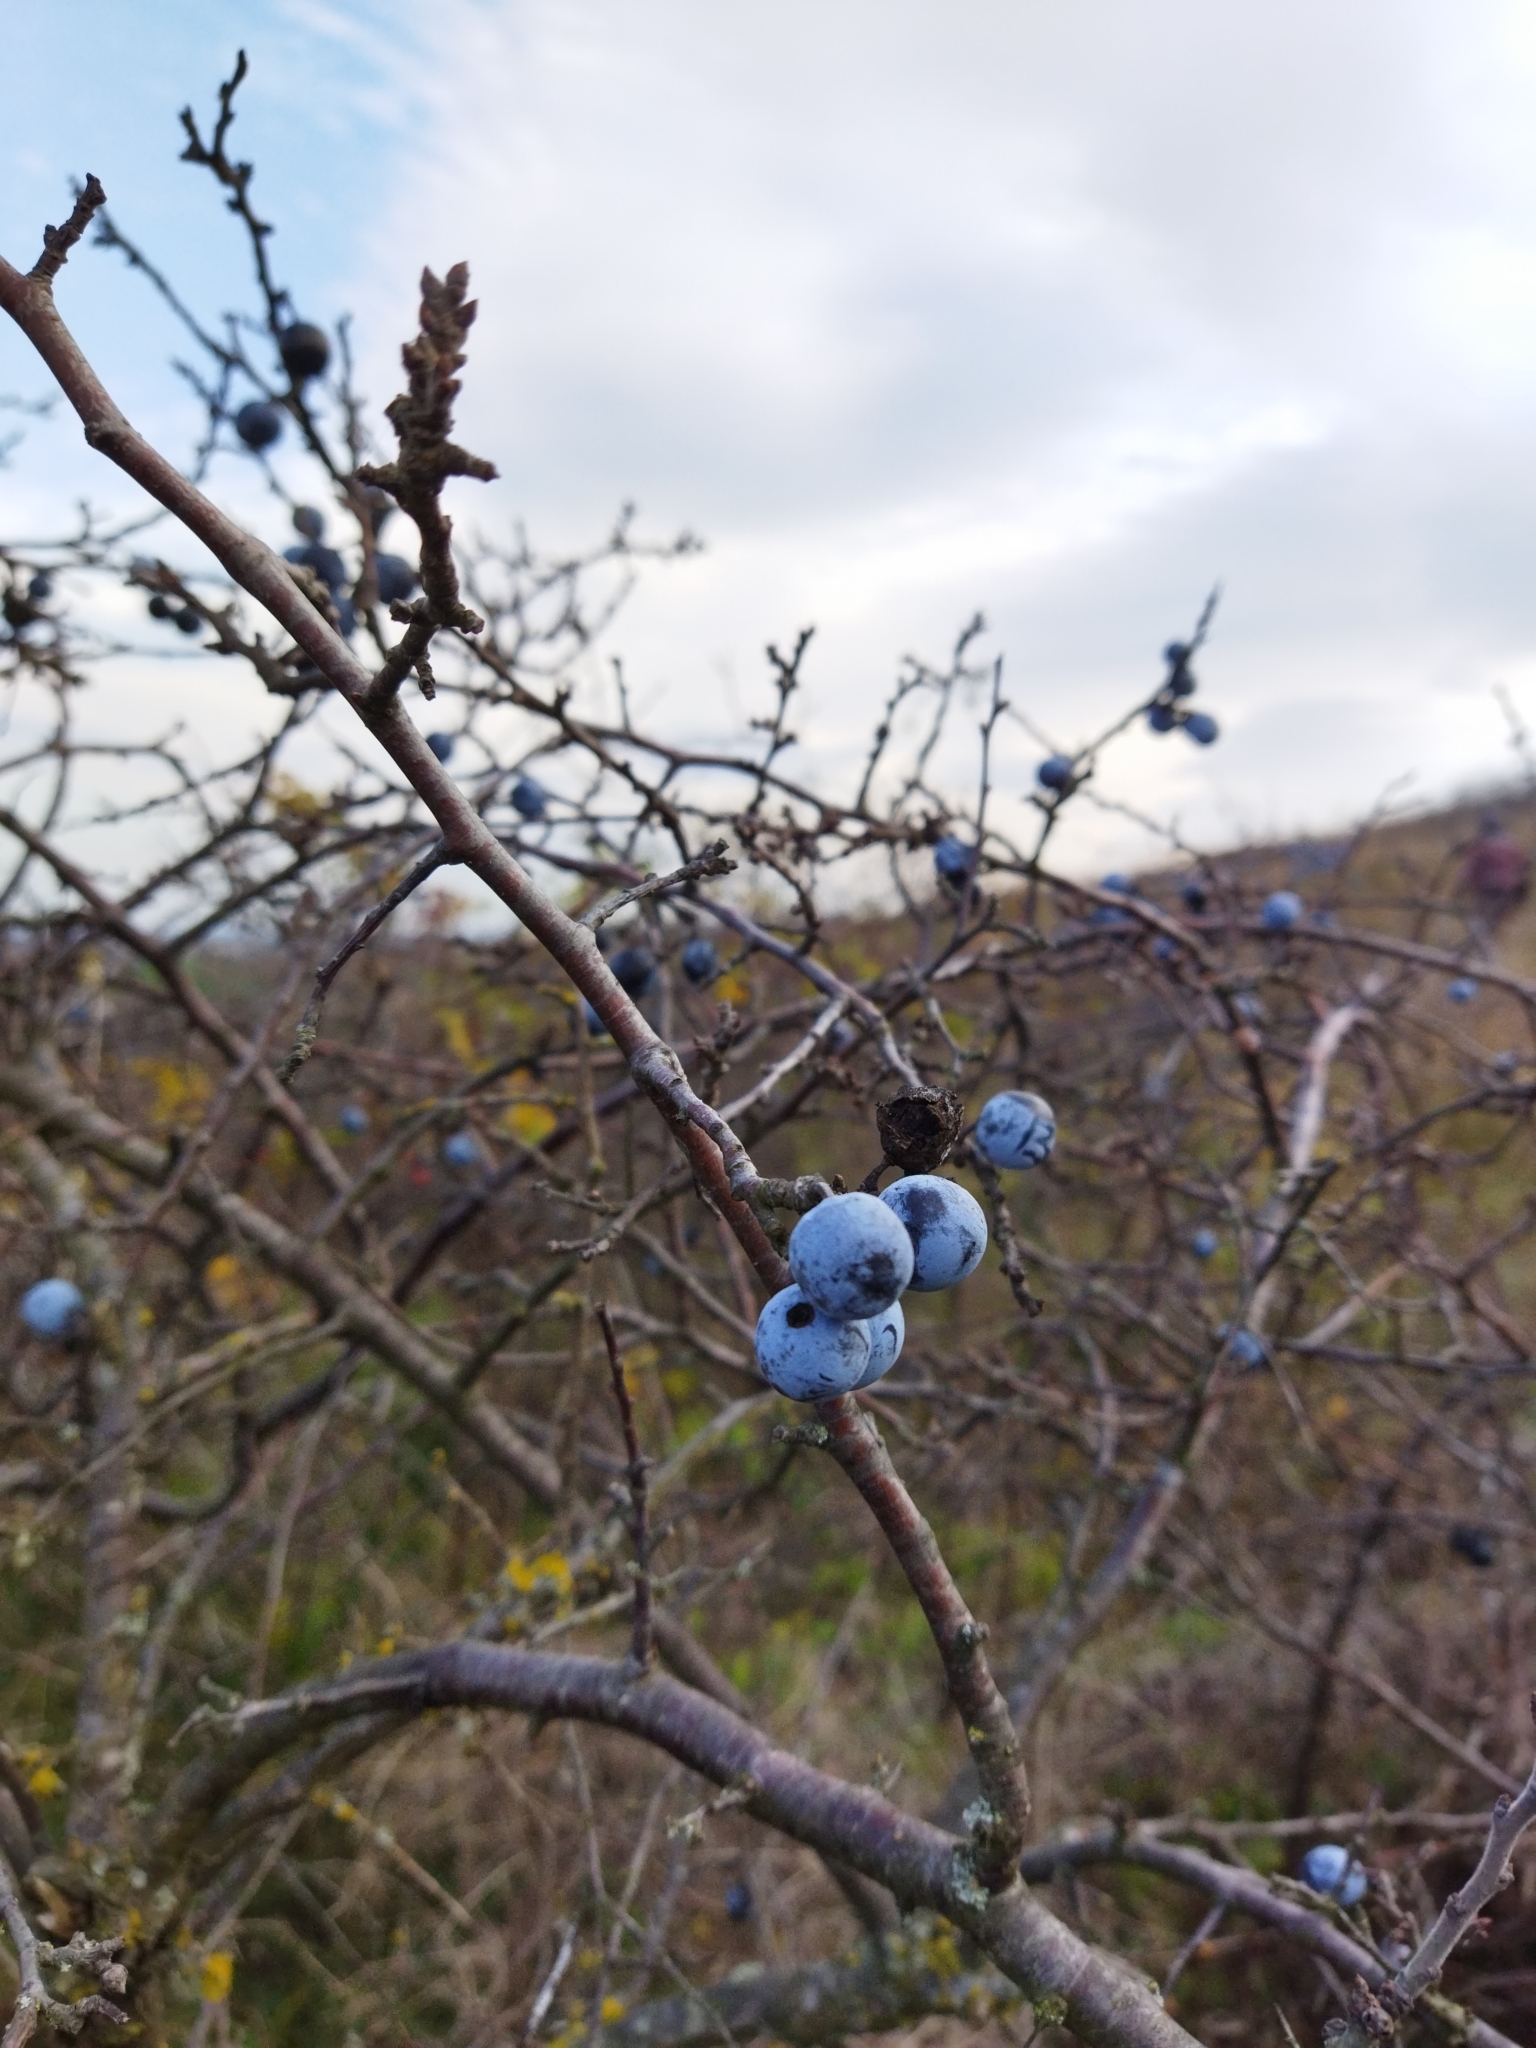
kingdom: Plantae
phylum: Tracheophyta
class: Magnoliopsida
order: Rosales
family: Rosaceae
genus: Prunus
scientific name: Prunus spinosa
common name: Blackthorn
